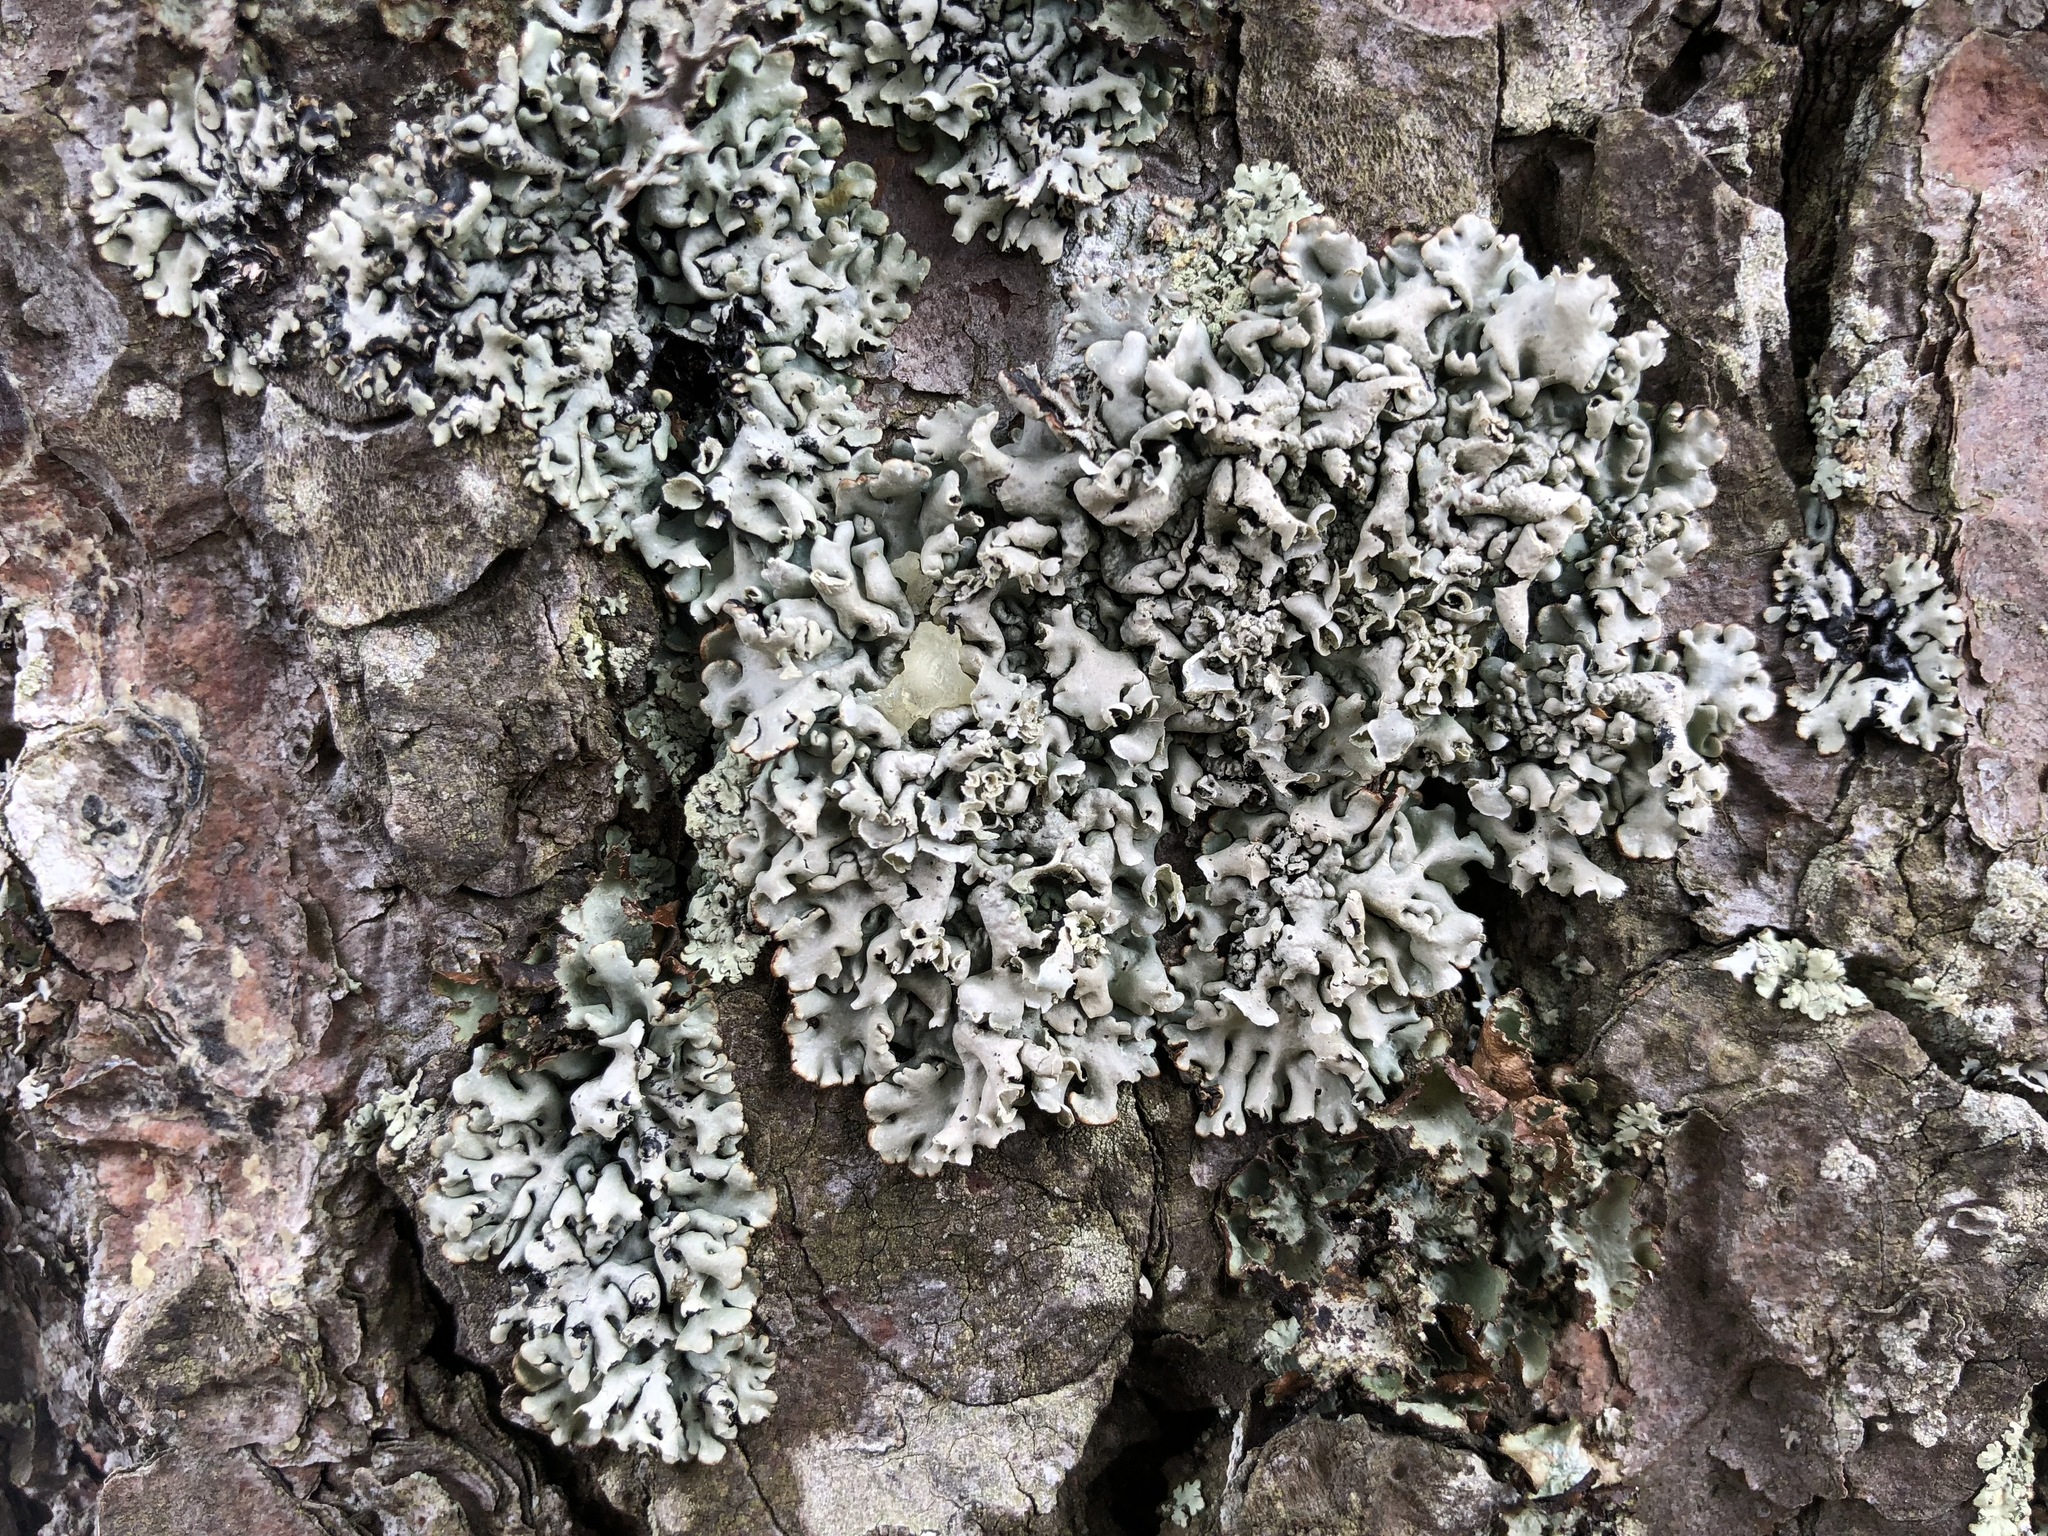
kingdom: Fungi
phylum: Ascomycota
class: Lecanoromycetes
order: Lecanorales
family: Parmeliaceae
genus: Hypogymnia
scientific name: Hypogymnia physodes
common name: Dark crottle
